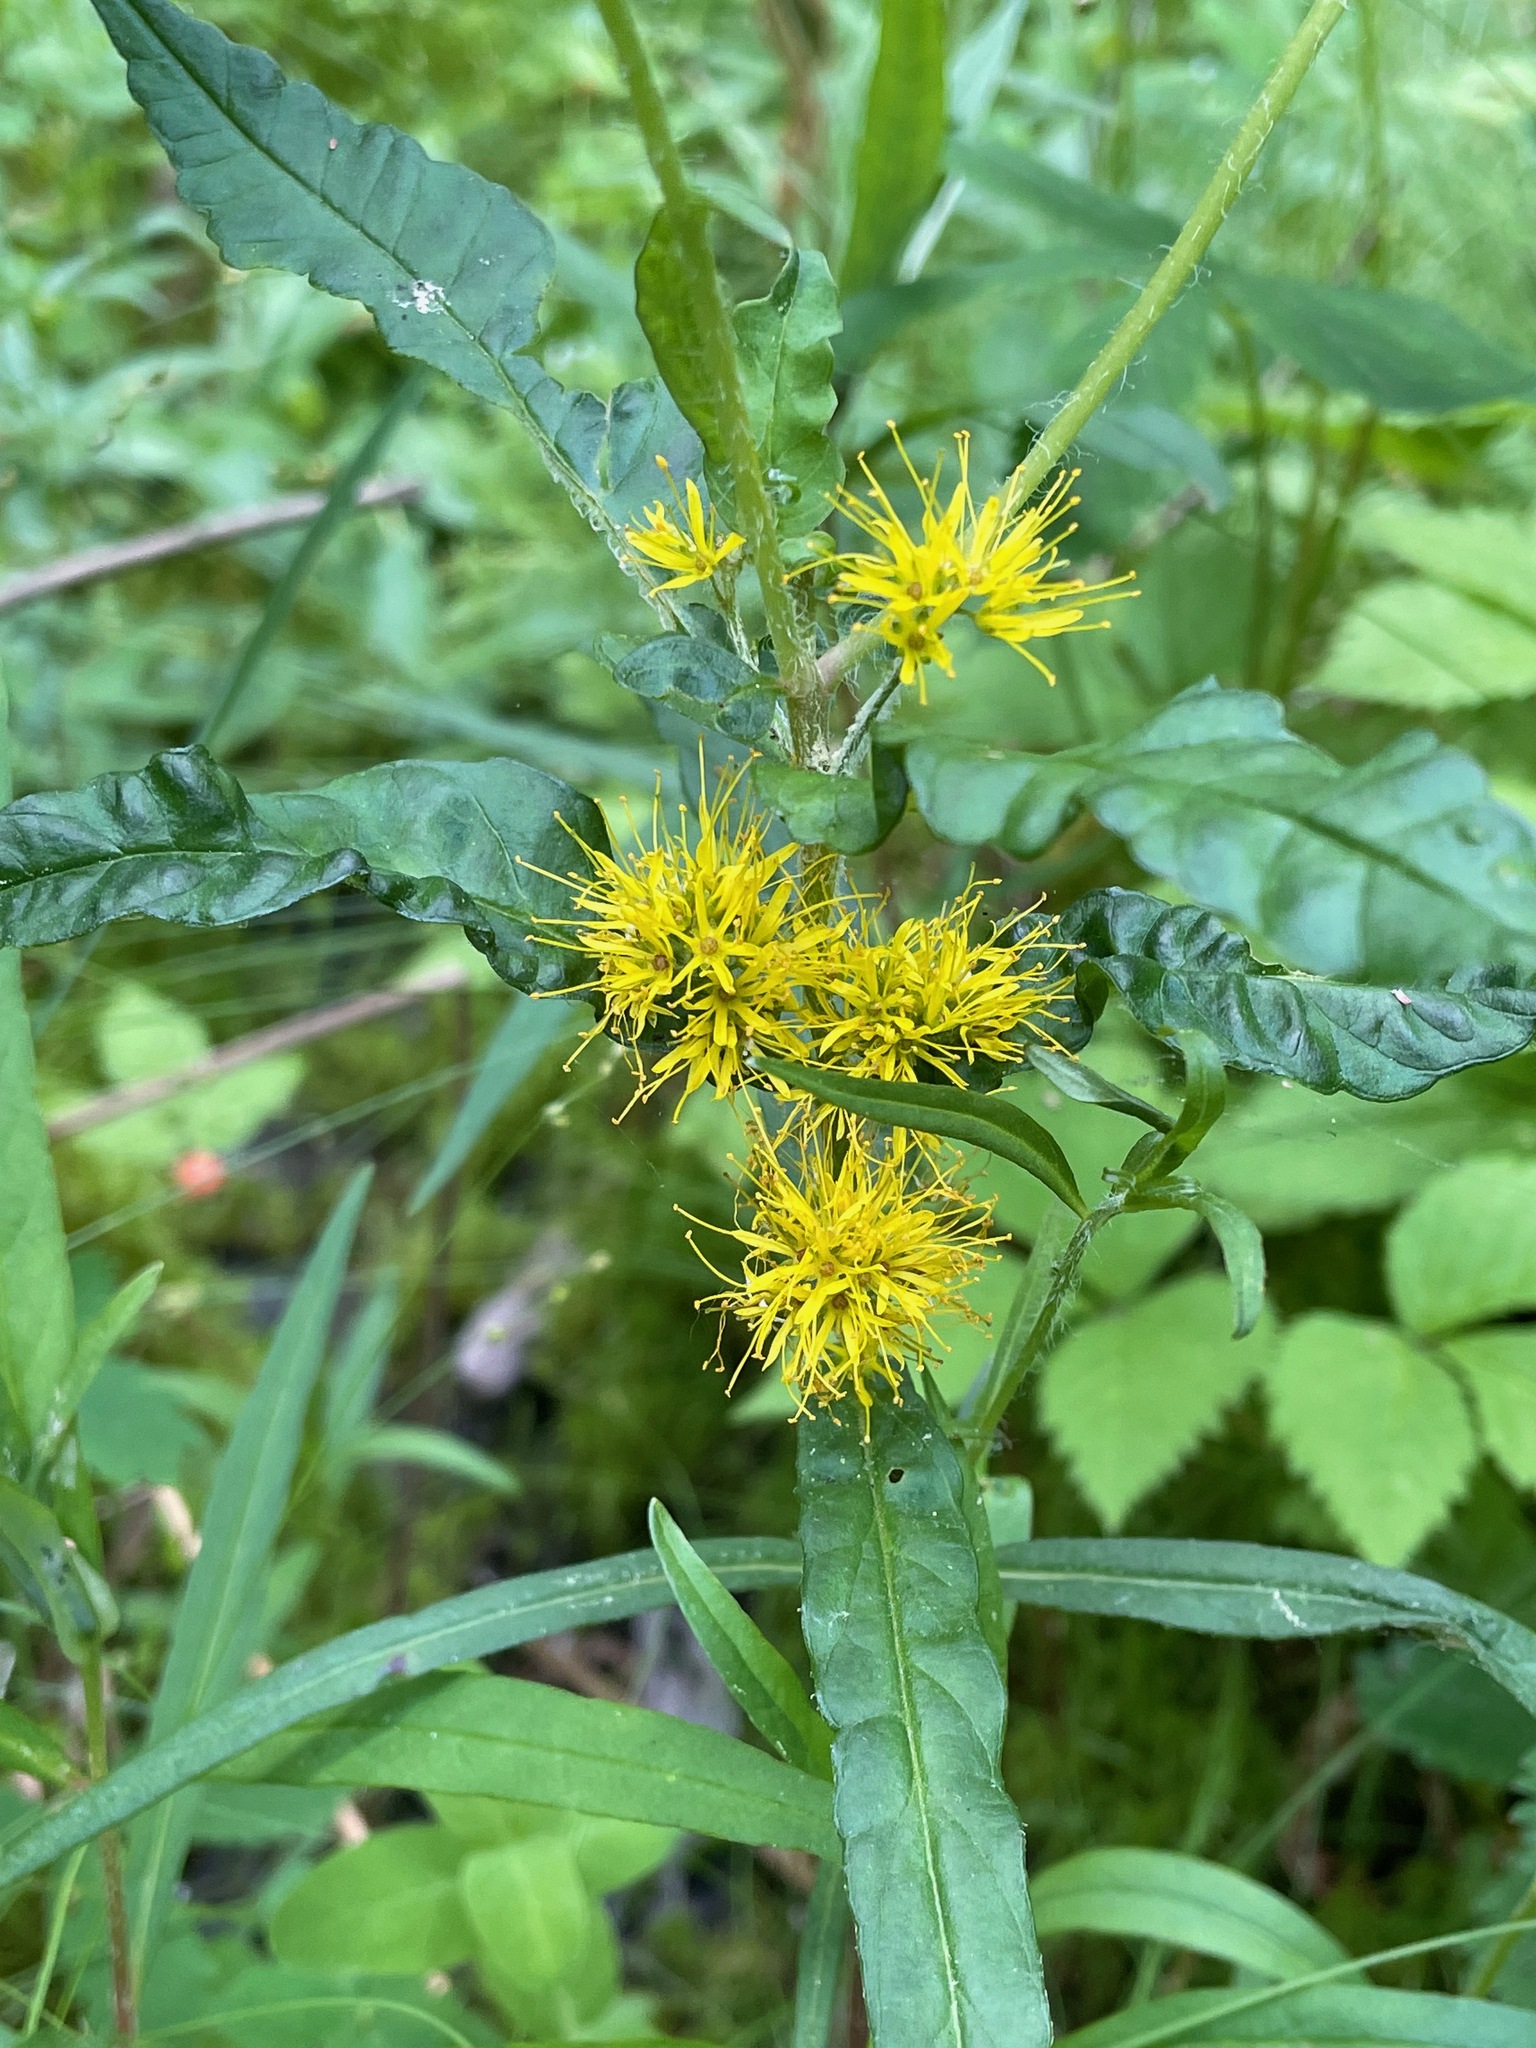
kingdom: Plantae
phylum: Tracheophyta
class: Magnoliopsida
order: Ericales
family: Primulaceae
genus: Lysimachia
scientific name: Lysimachia thyrsiflora
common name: Tufted loosestrife
